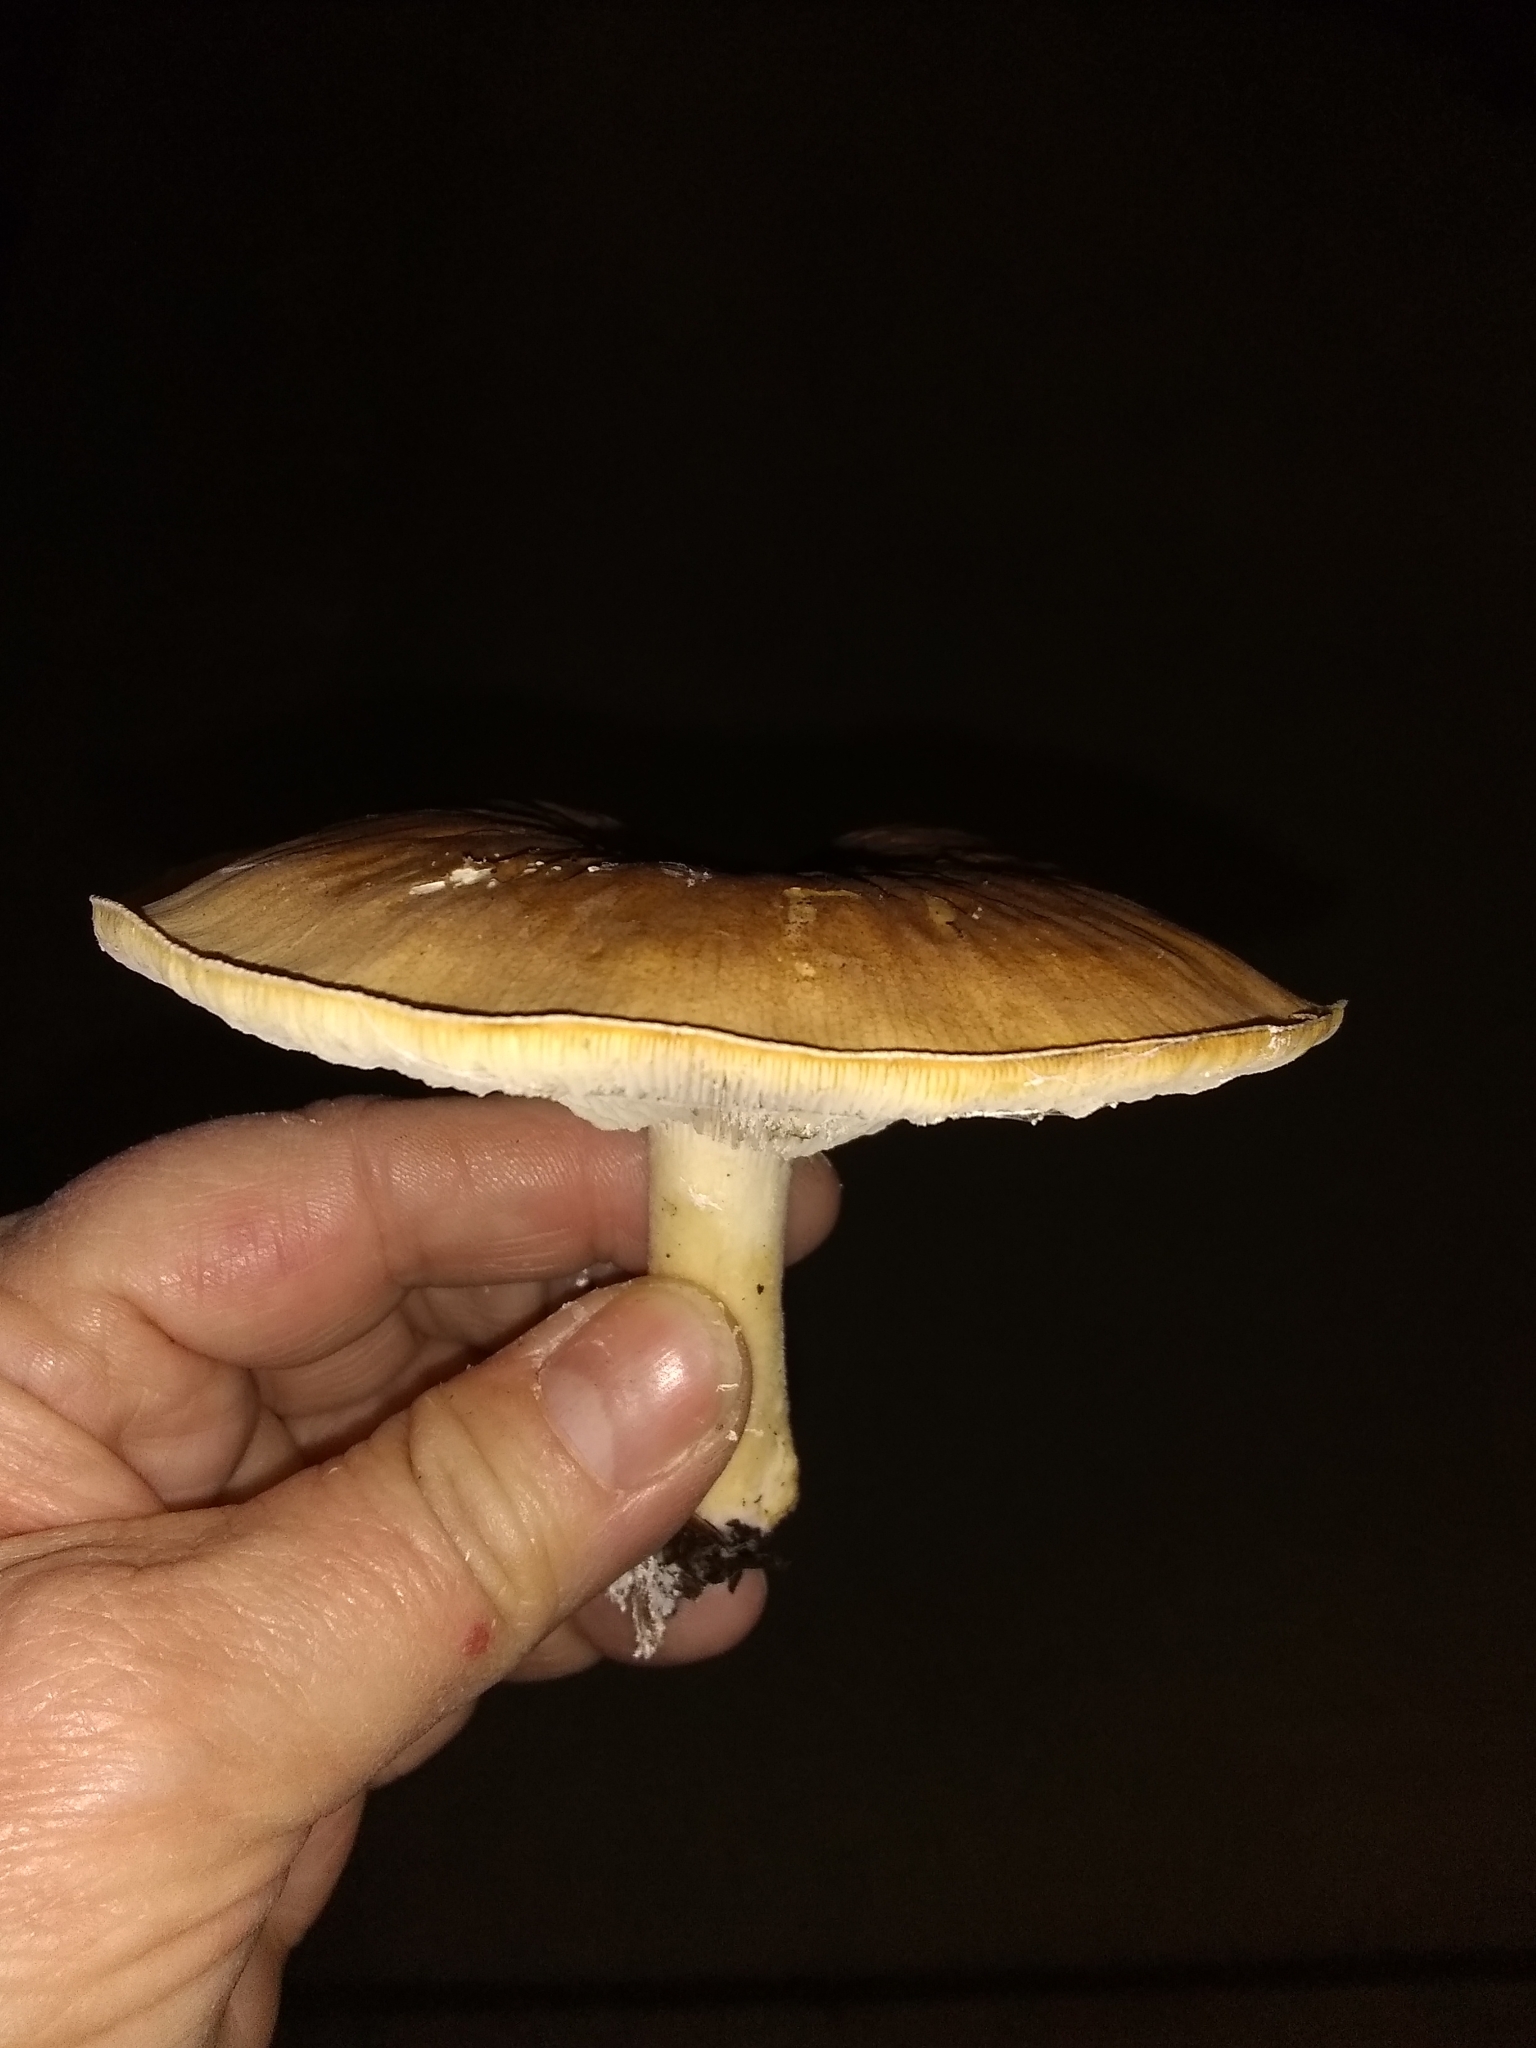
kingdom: Fungi
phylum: Basidiomycota
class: Agaricomycetes
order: Agaricales
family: Tricholomataceae
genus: Leucopaxillus
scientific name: Leucopaxillus gentianeus
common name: Bitter funnel
